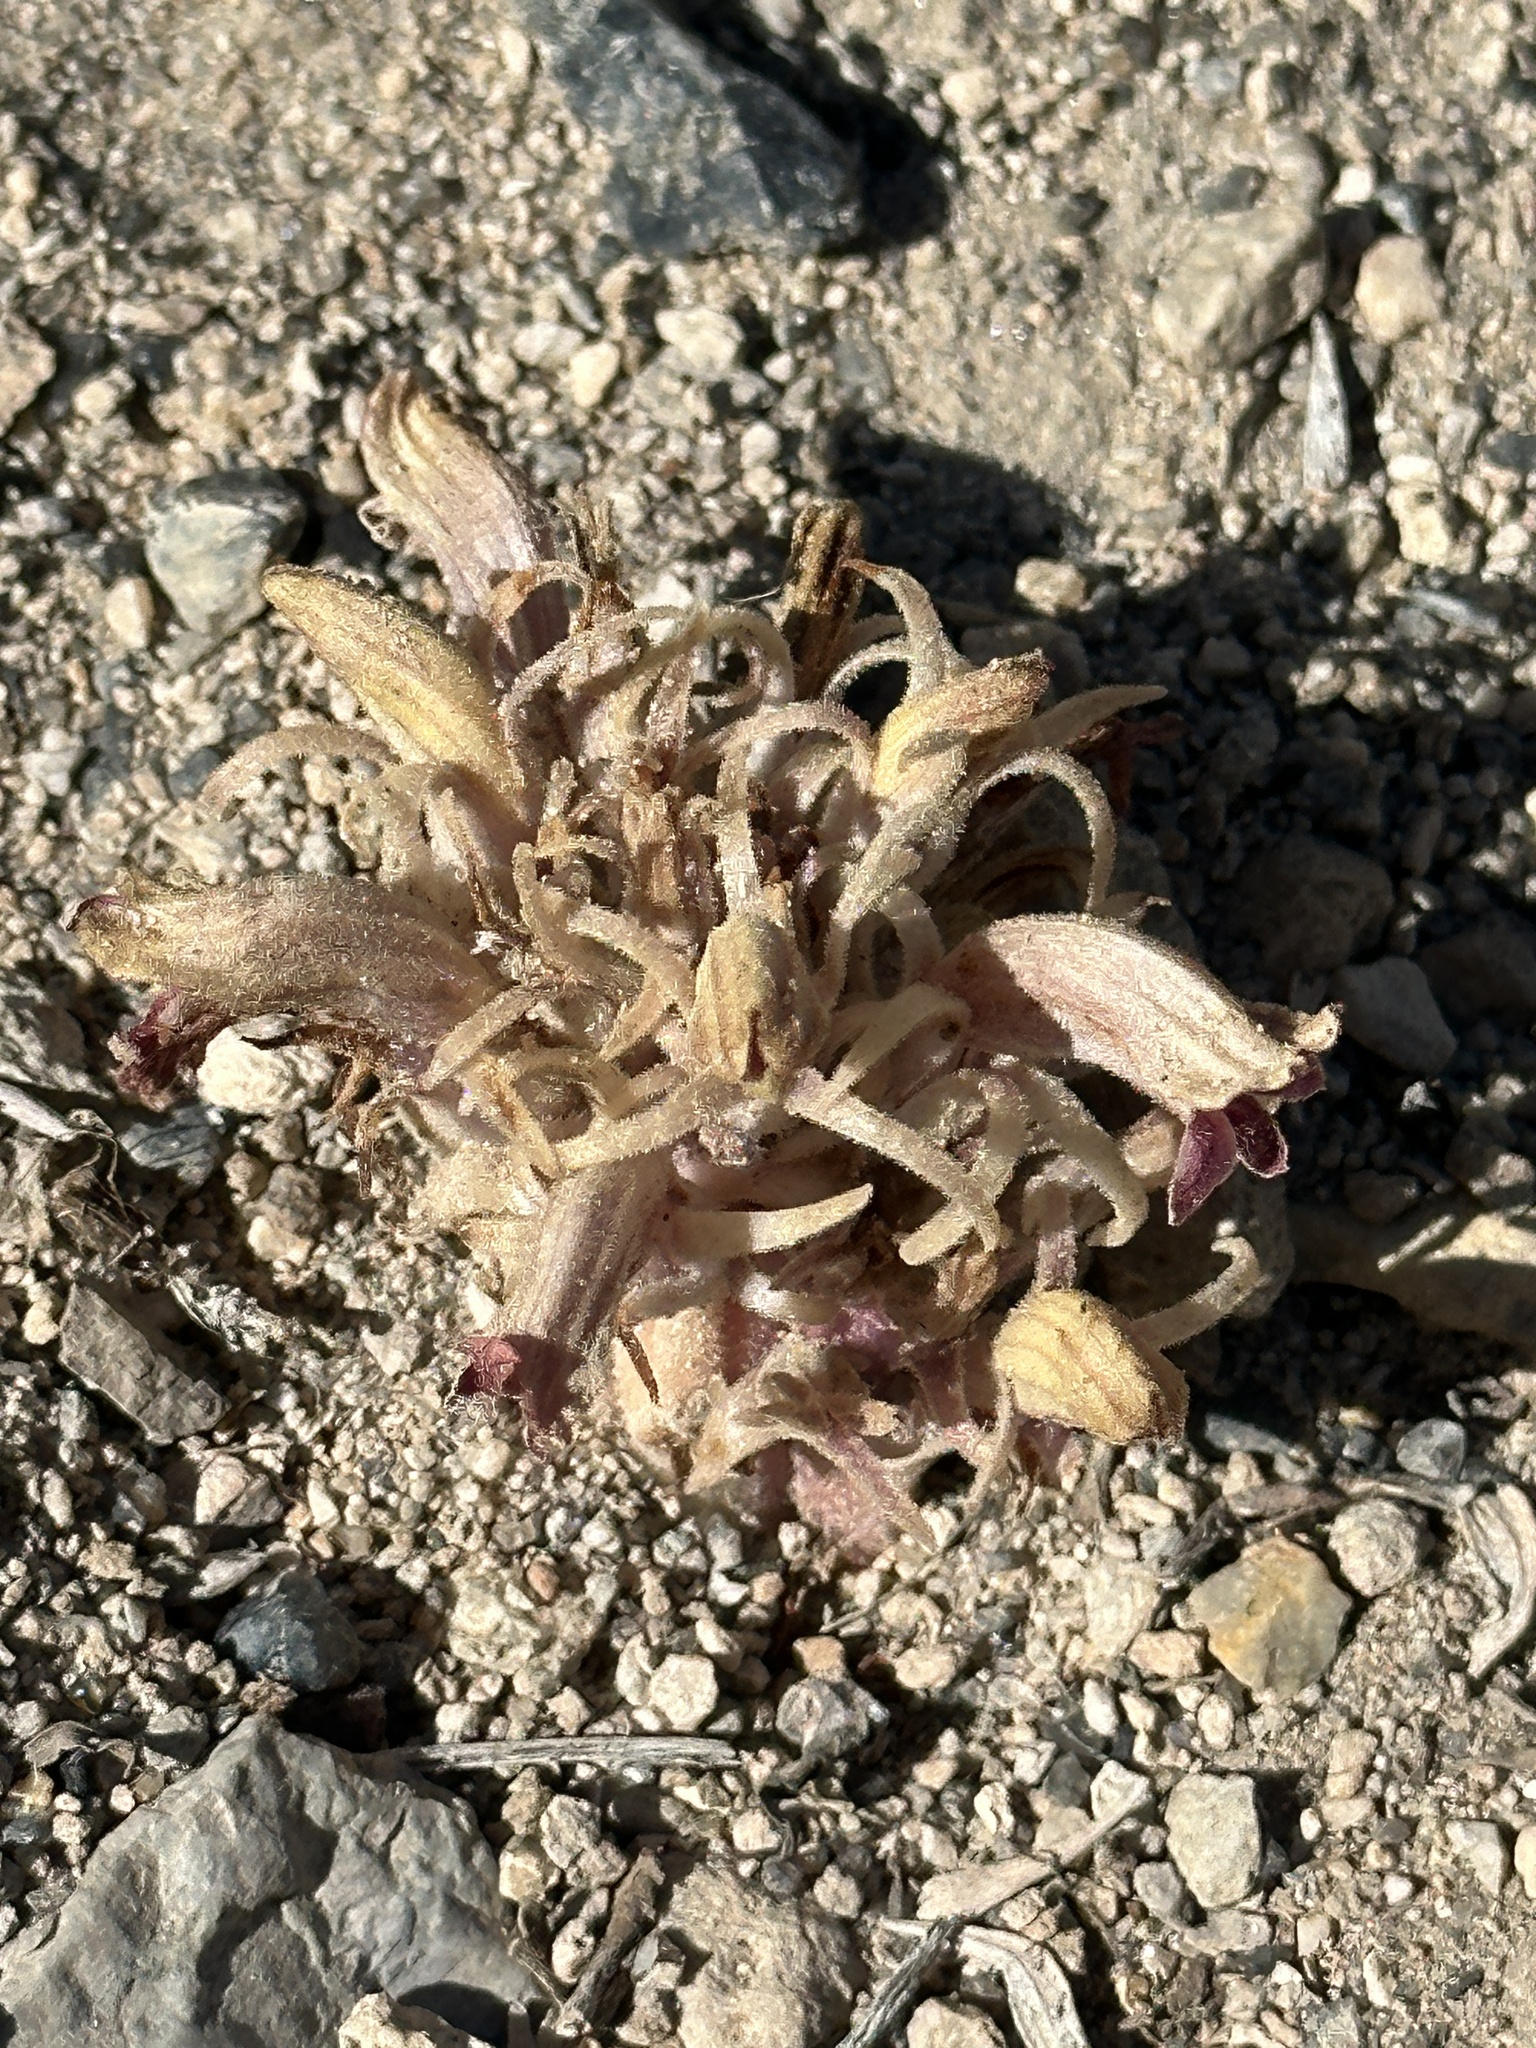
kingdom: Plantae
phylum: Tracheophyta
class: Magnoliopsida
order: Lamiales
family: Orobanchaceae
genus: Aphyllon
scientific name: Aphyllon corymbosum
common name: Flat-top broomrape
